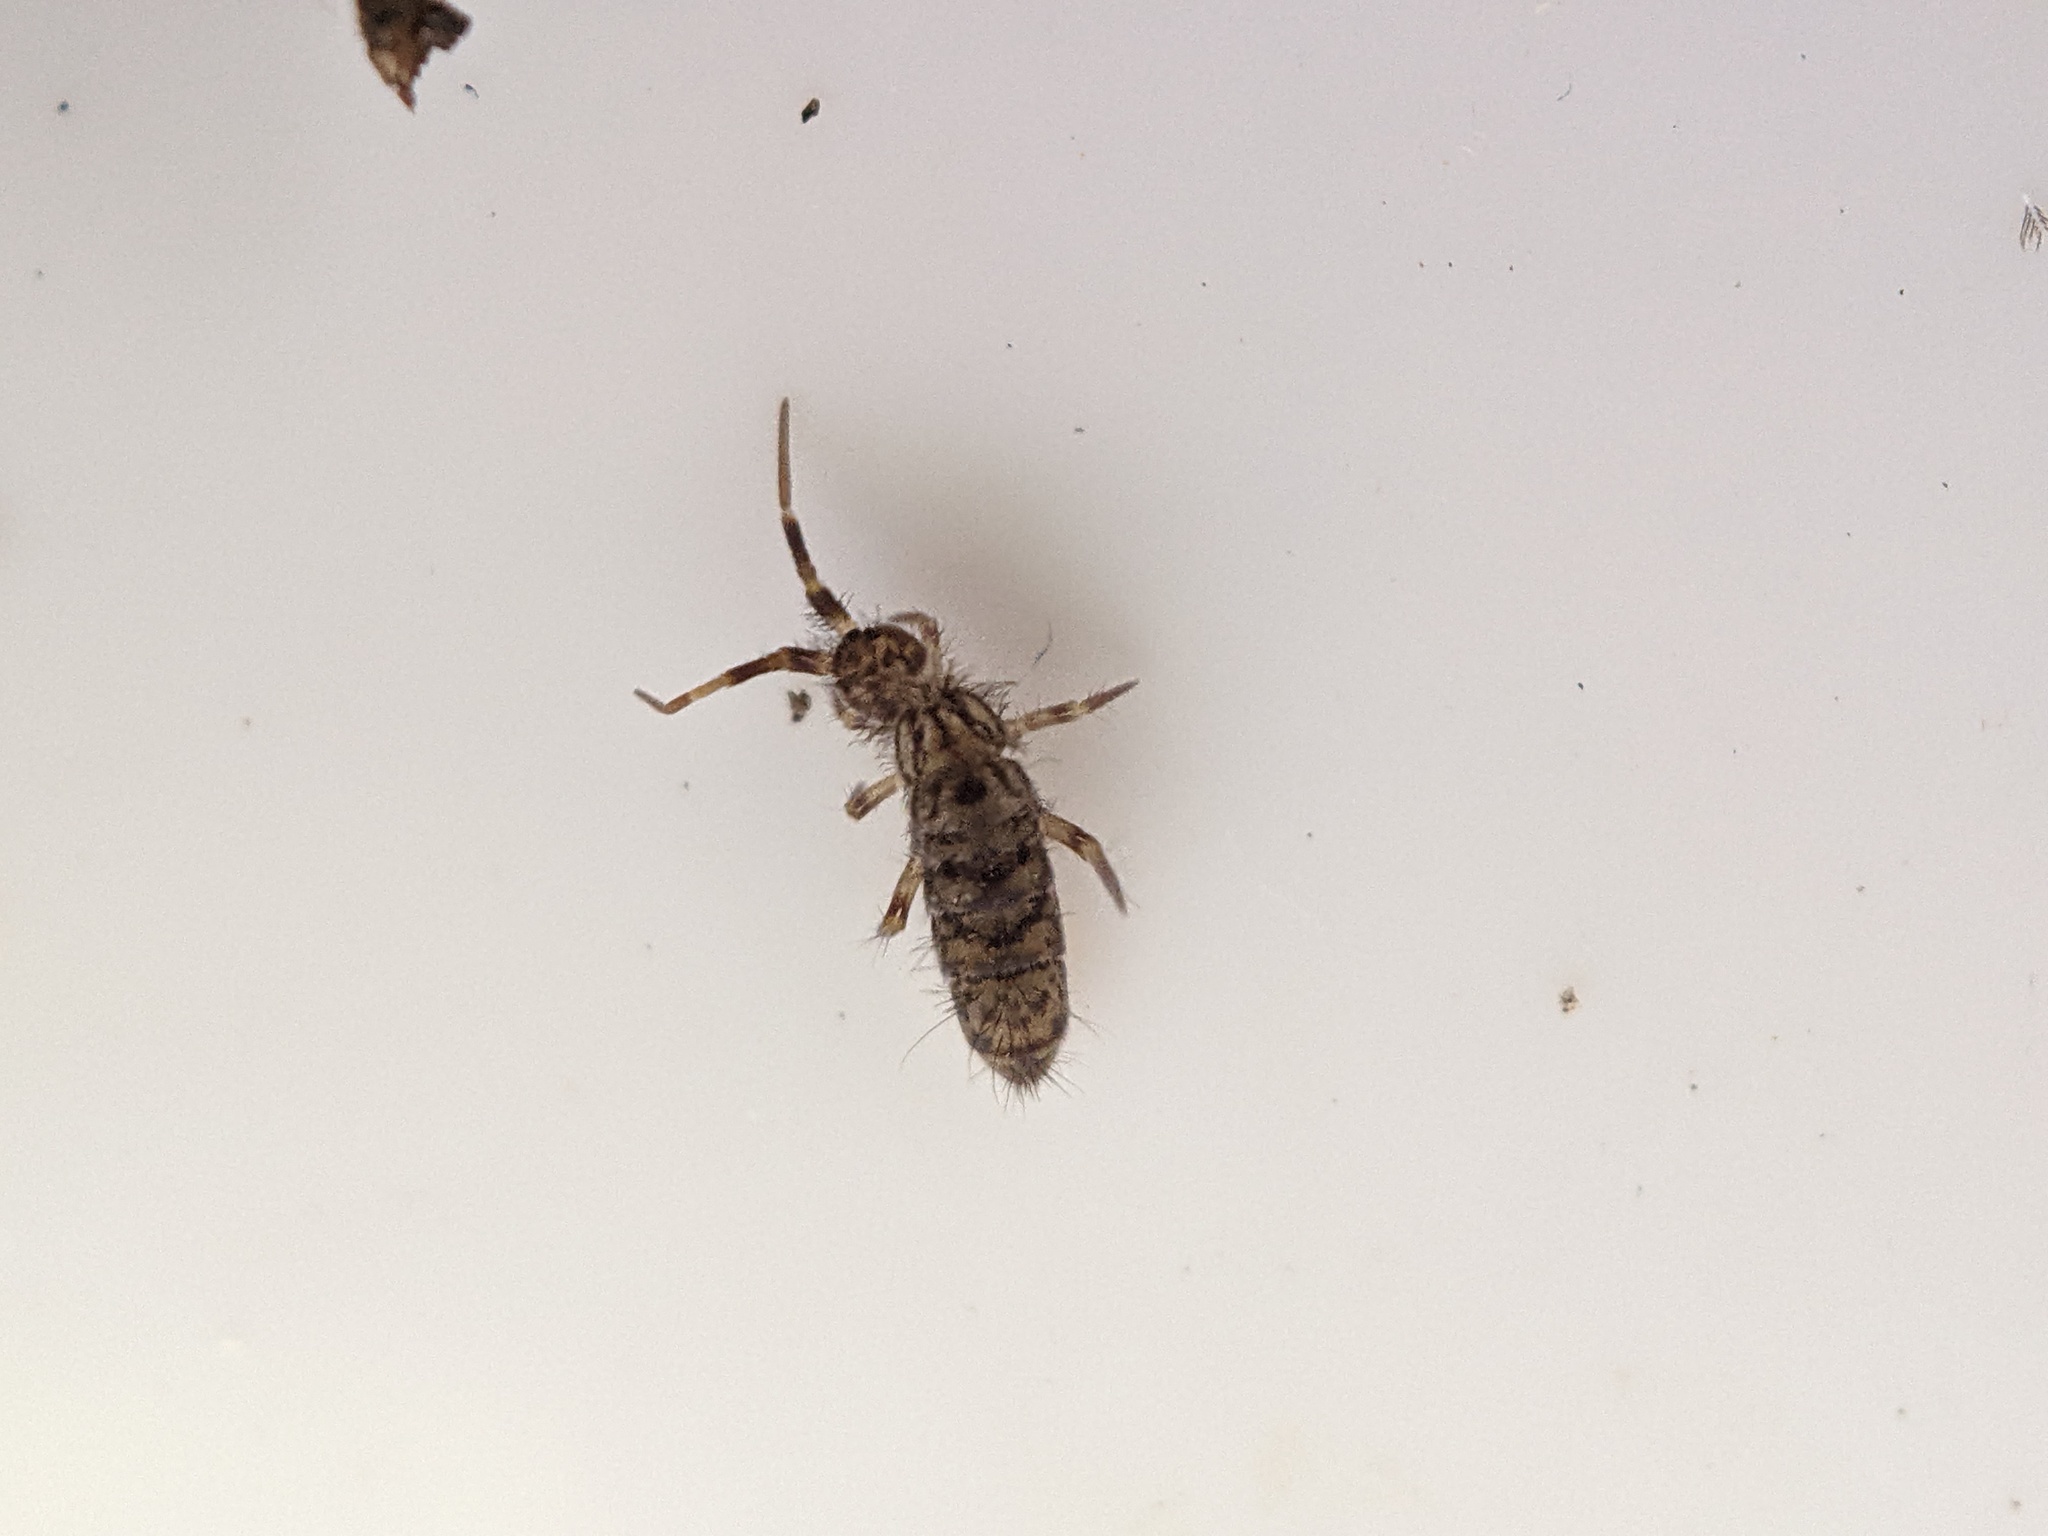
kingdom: Animalia
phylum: Arthropoda
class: Collembola
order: Entomobryomorpha
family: Orchesellidae
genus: Orchesella
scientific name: Orchesella villosa
